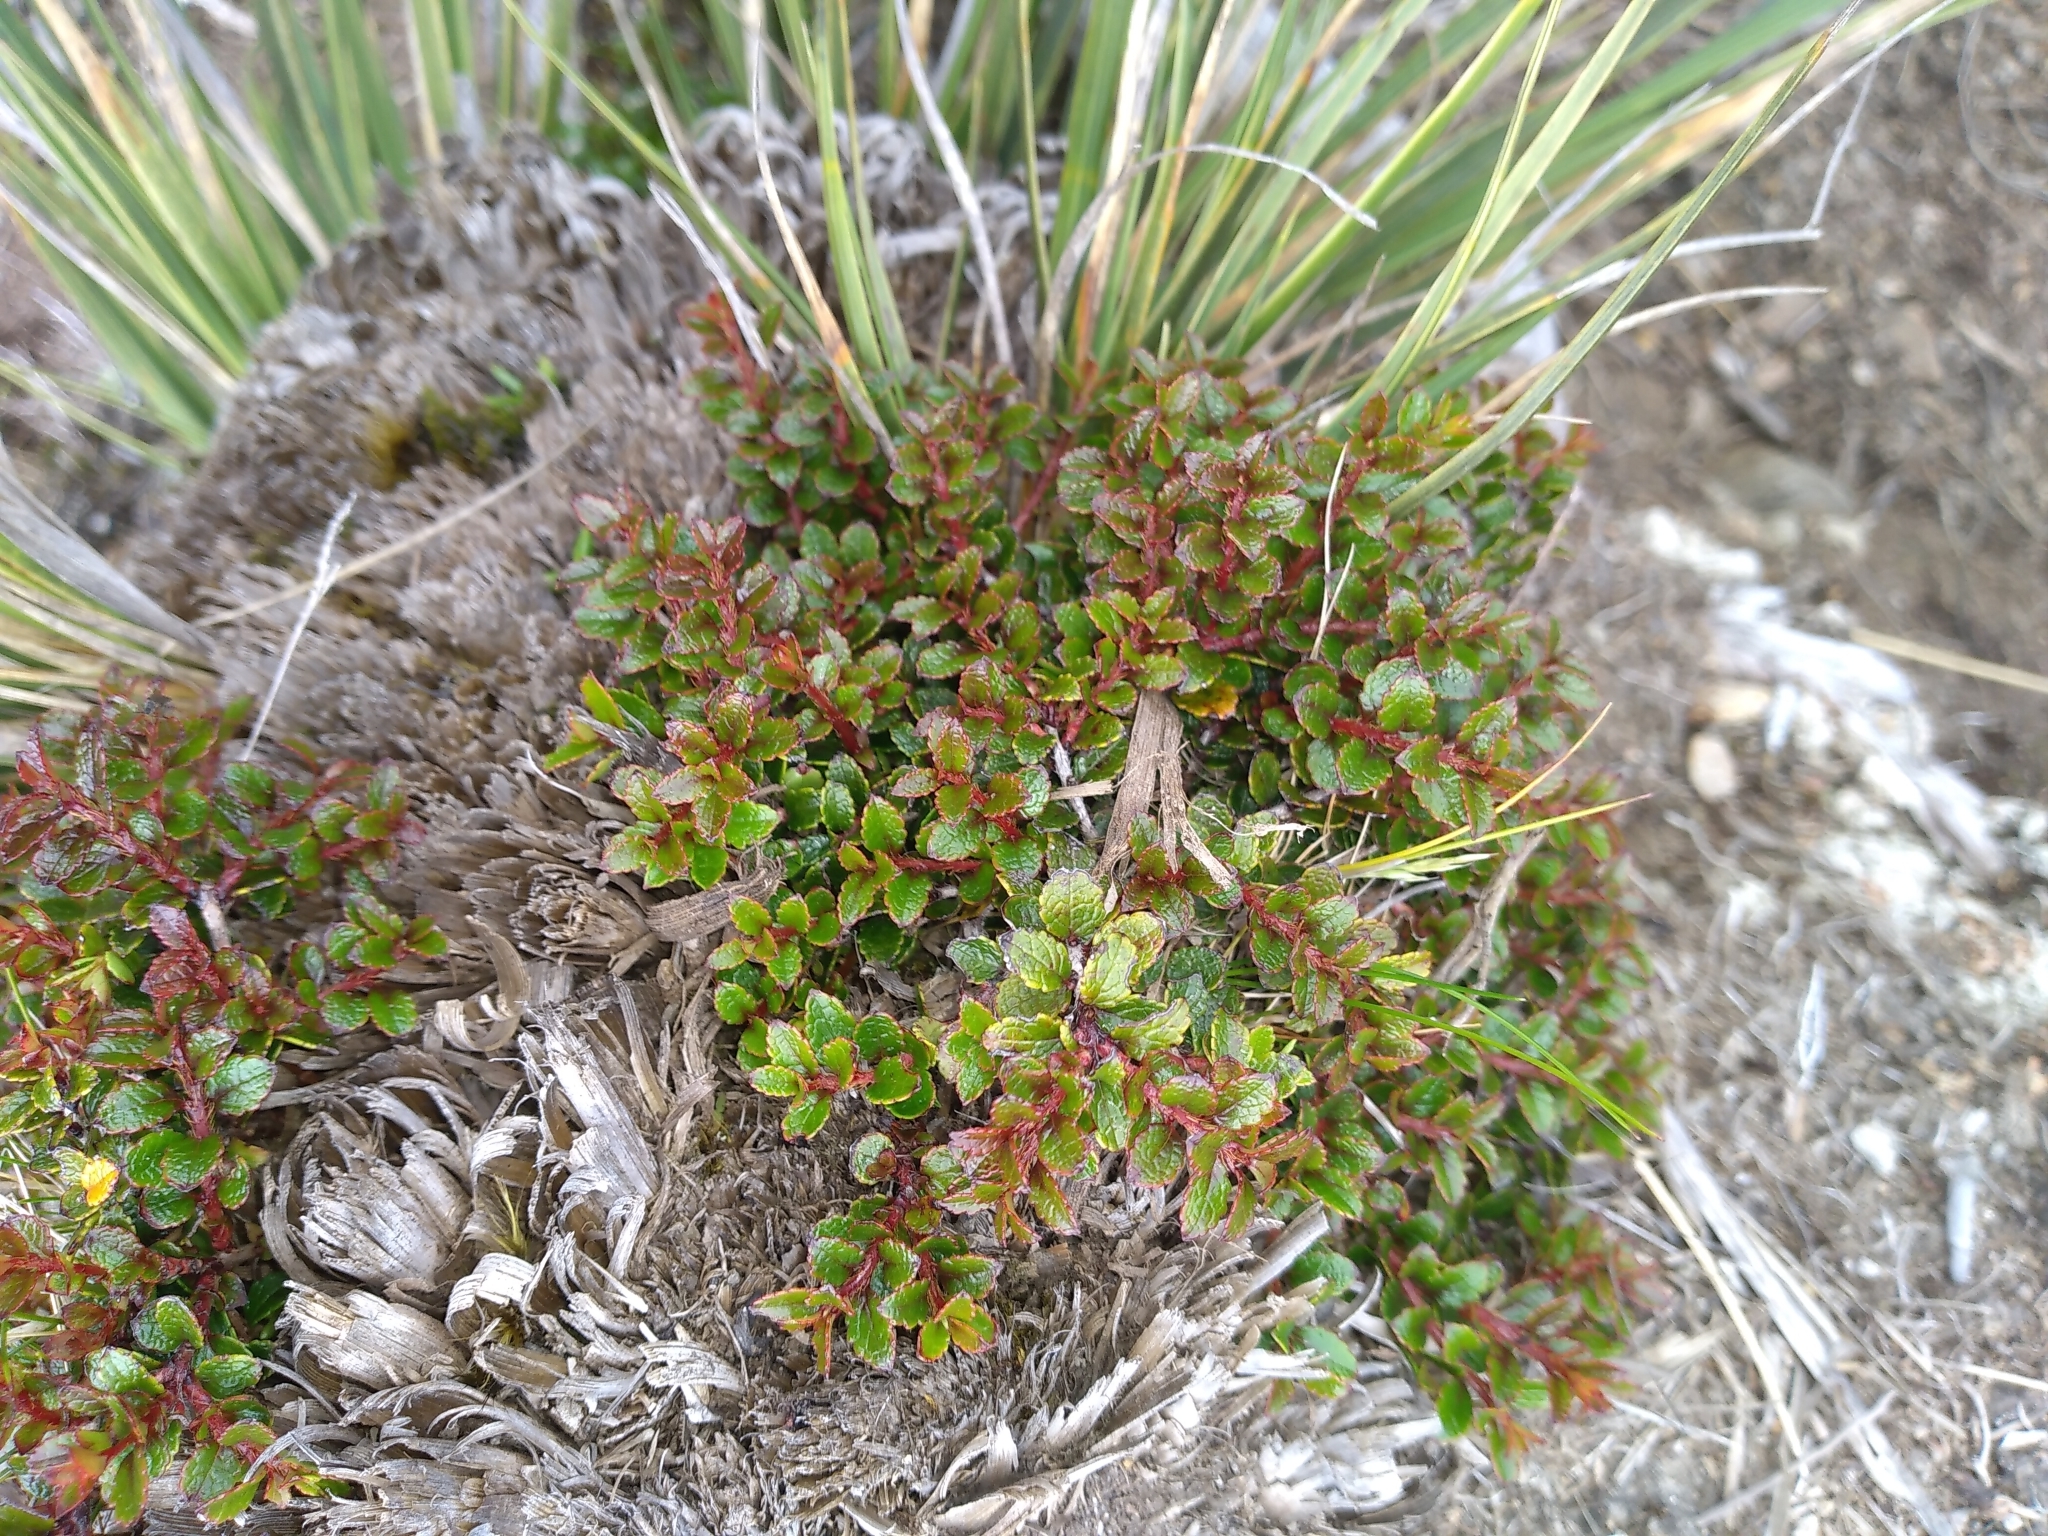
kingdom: Plantae
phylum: Tracheophyta
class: Magnoliopsida
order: Ericales
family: Ericaceae
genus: Gaultheria
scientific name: Gaultheria depressa
